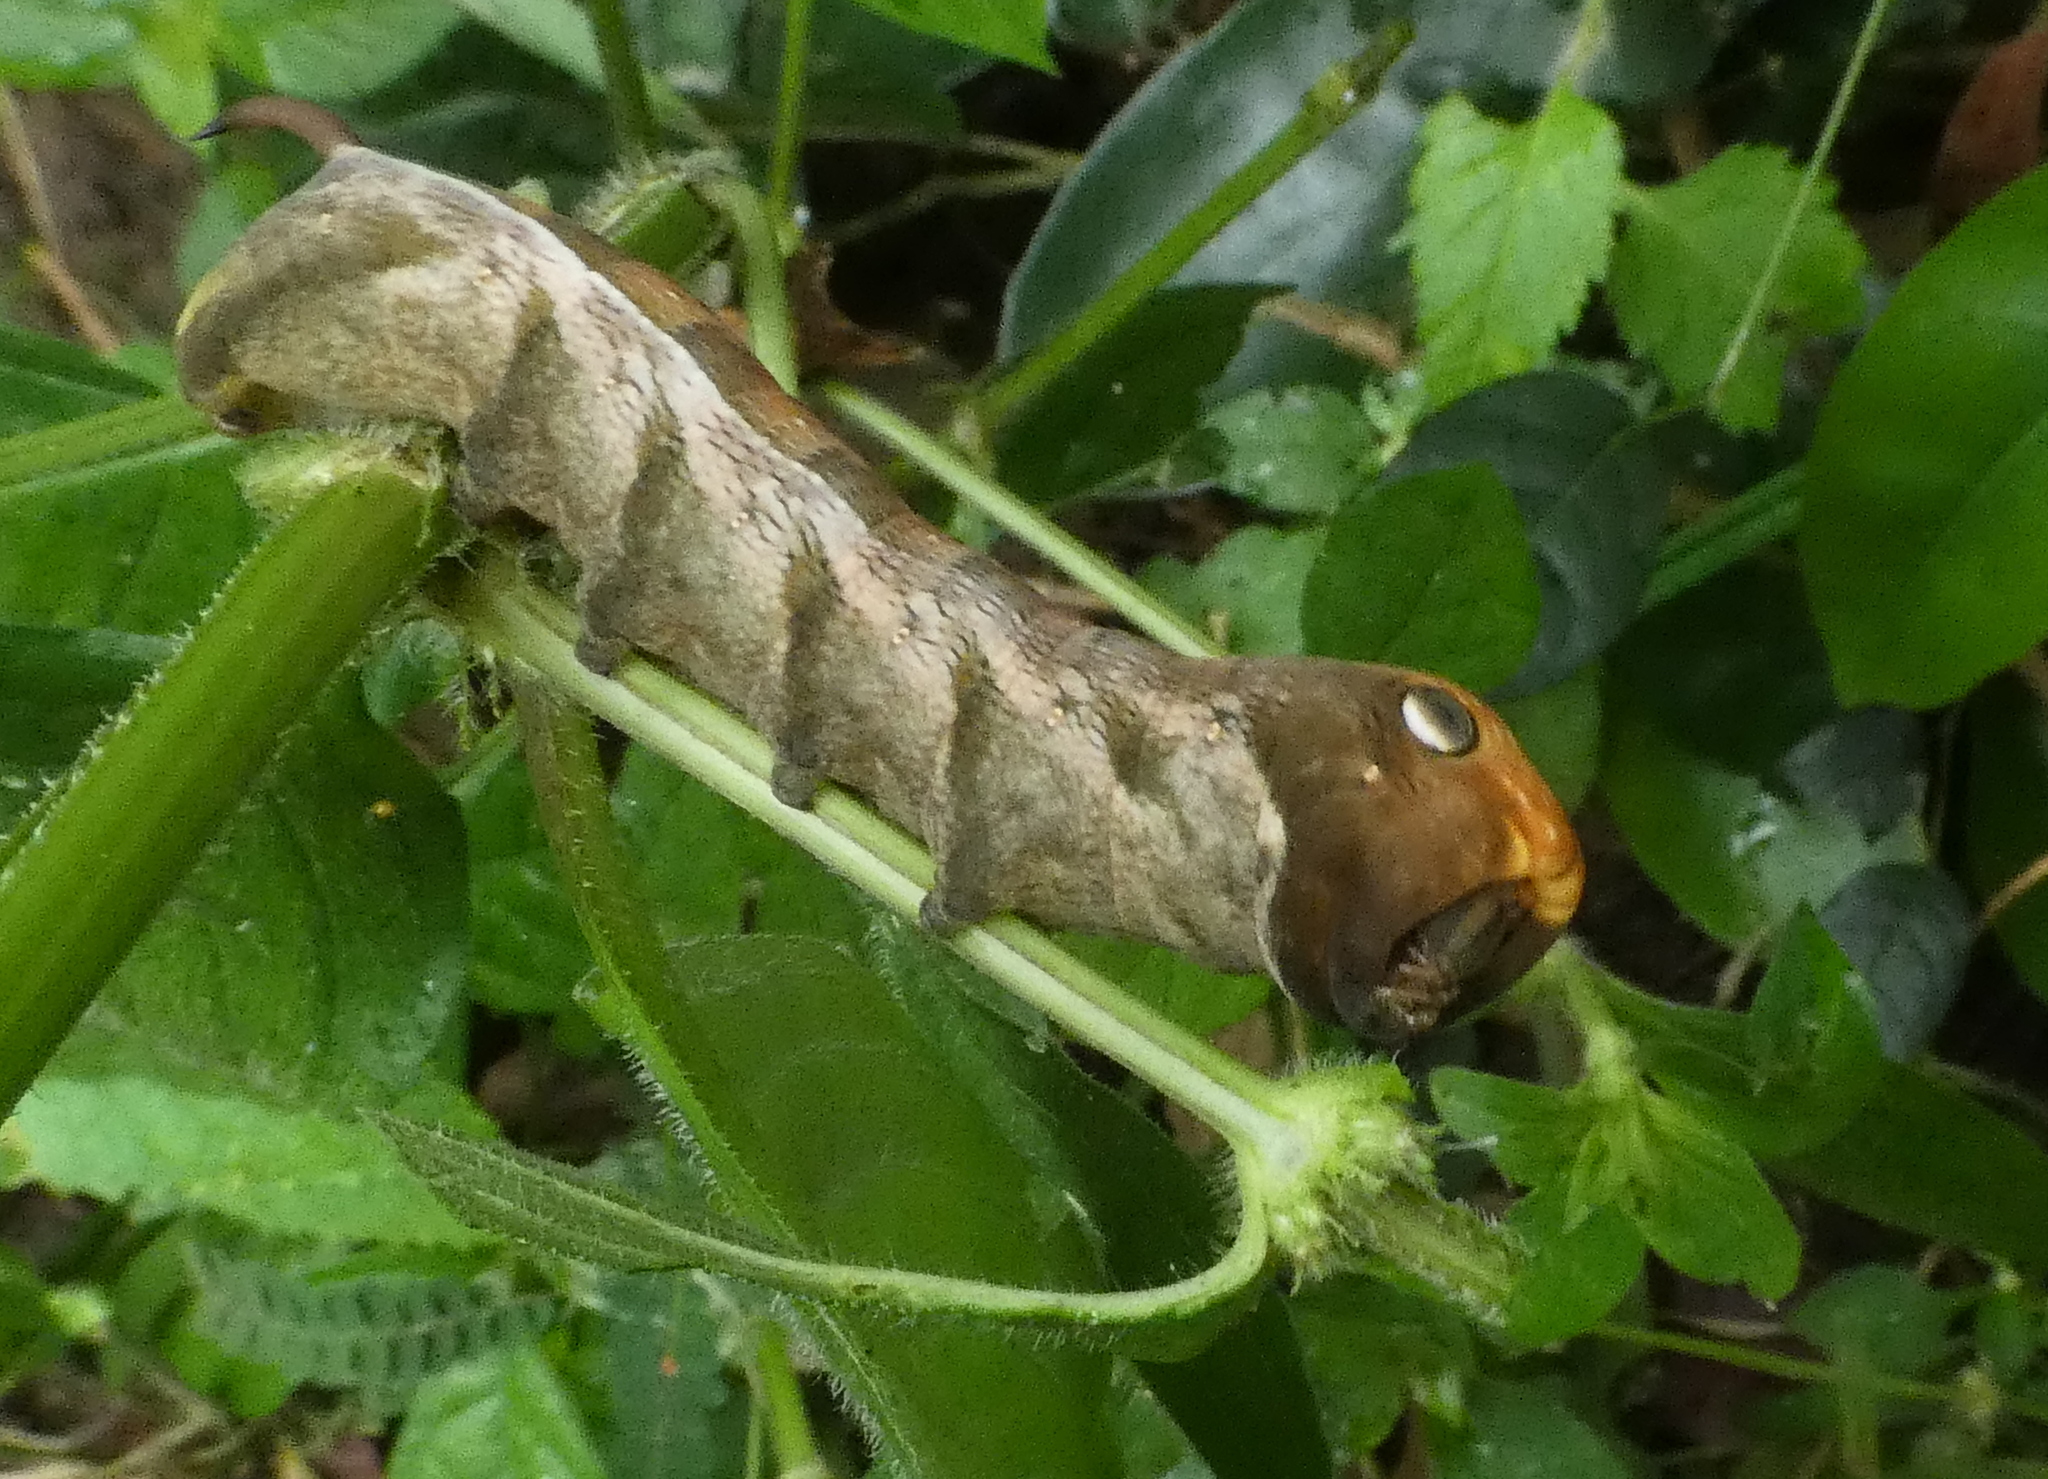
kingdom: Animalia
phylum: Arthropoda
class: Insecta
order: Lepidoptera
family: Sphingidae
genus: Xylophanes
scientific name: Xylophanes pluto
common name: Pluto sphinx
